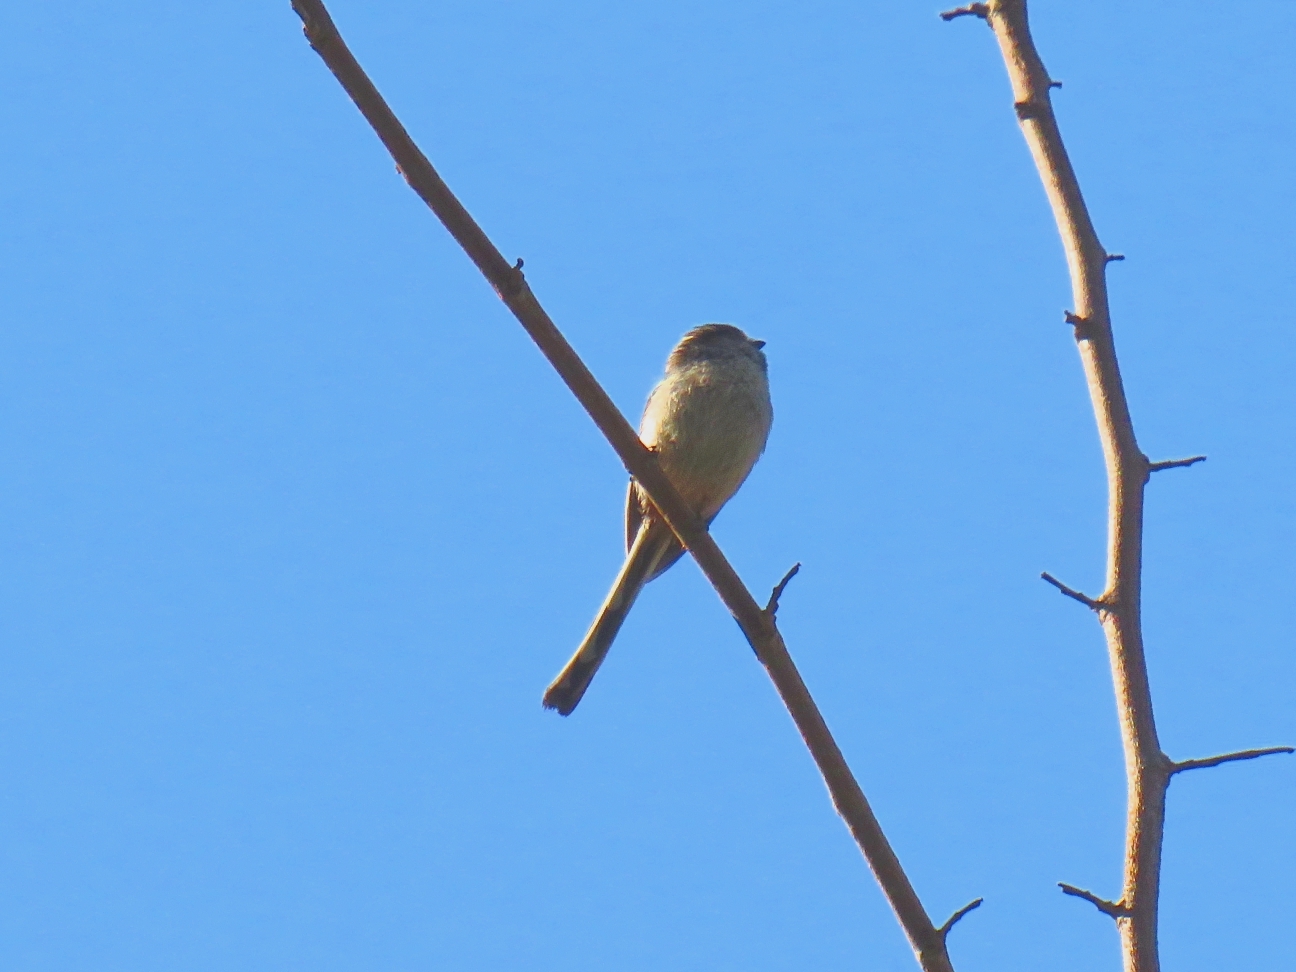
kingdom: Animalia
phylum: Chordata
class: Aves
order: Passeriformes
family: Aegithalidae
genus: Aegithalos
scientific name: Aegithalos caudatus
